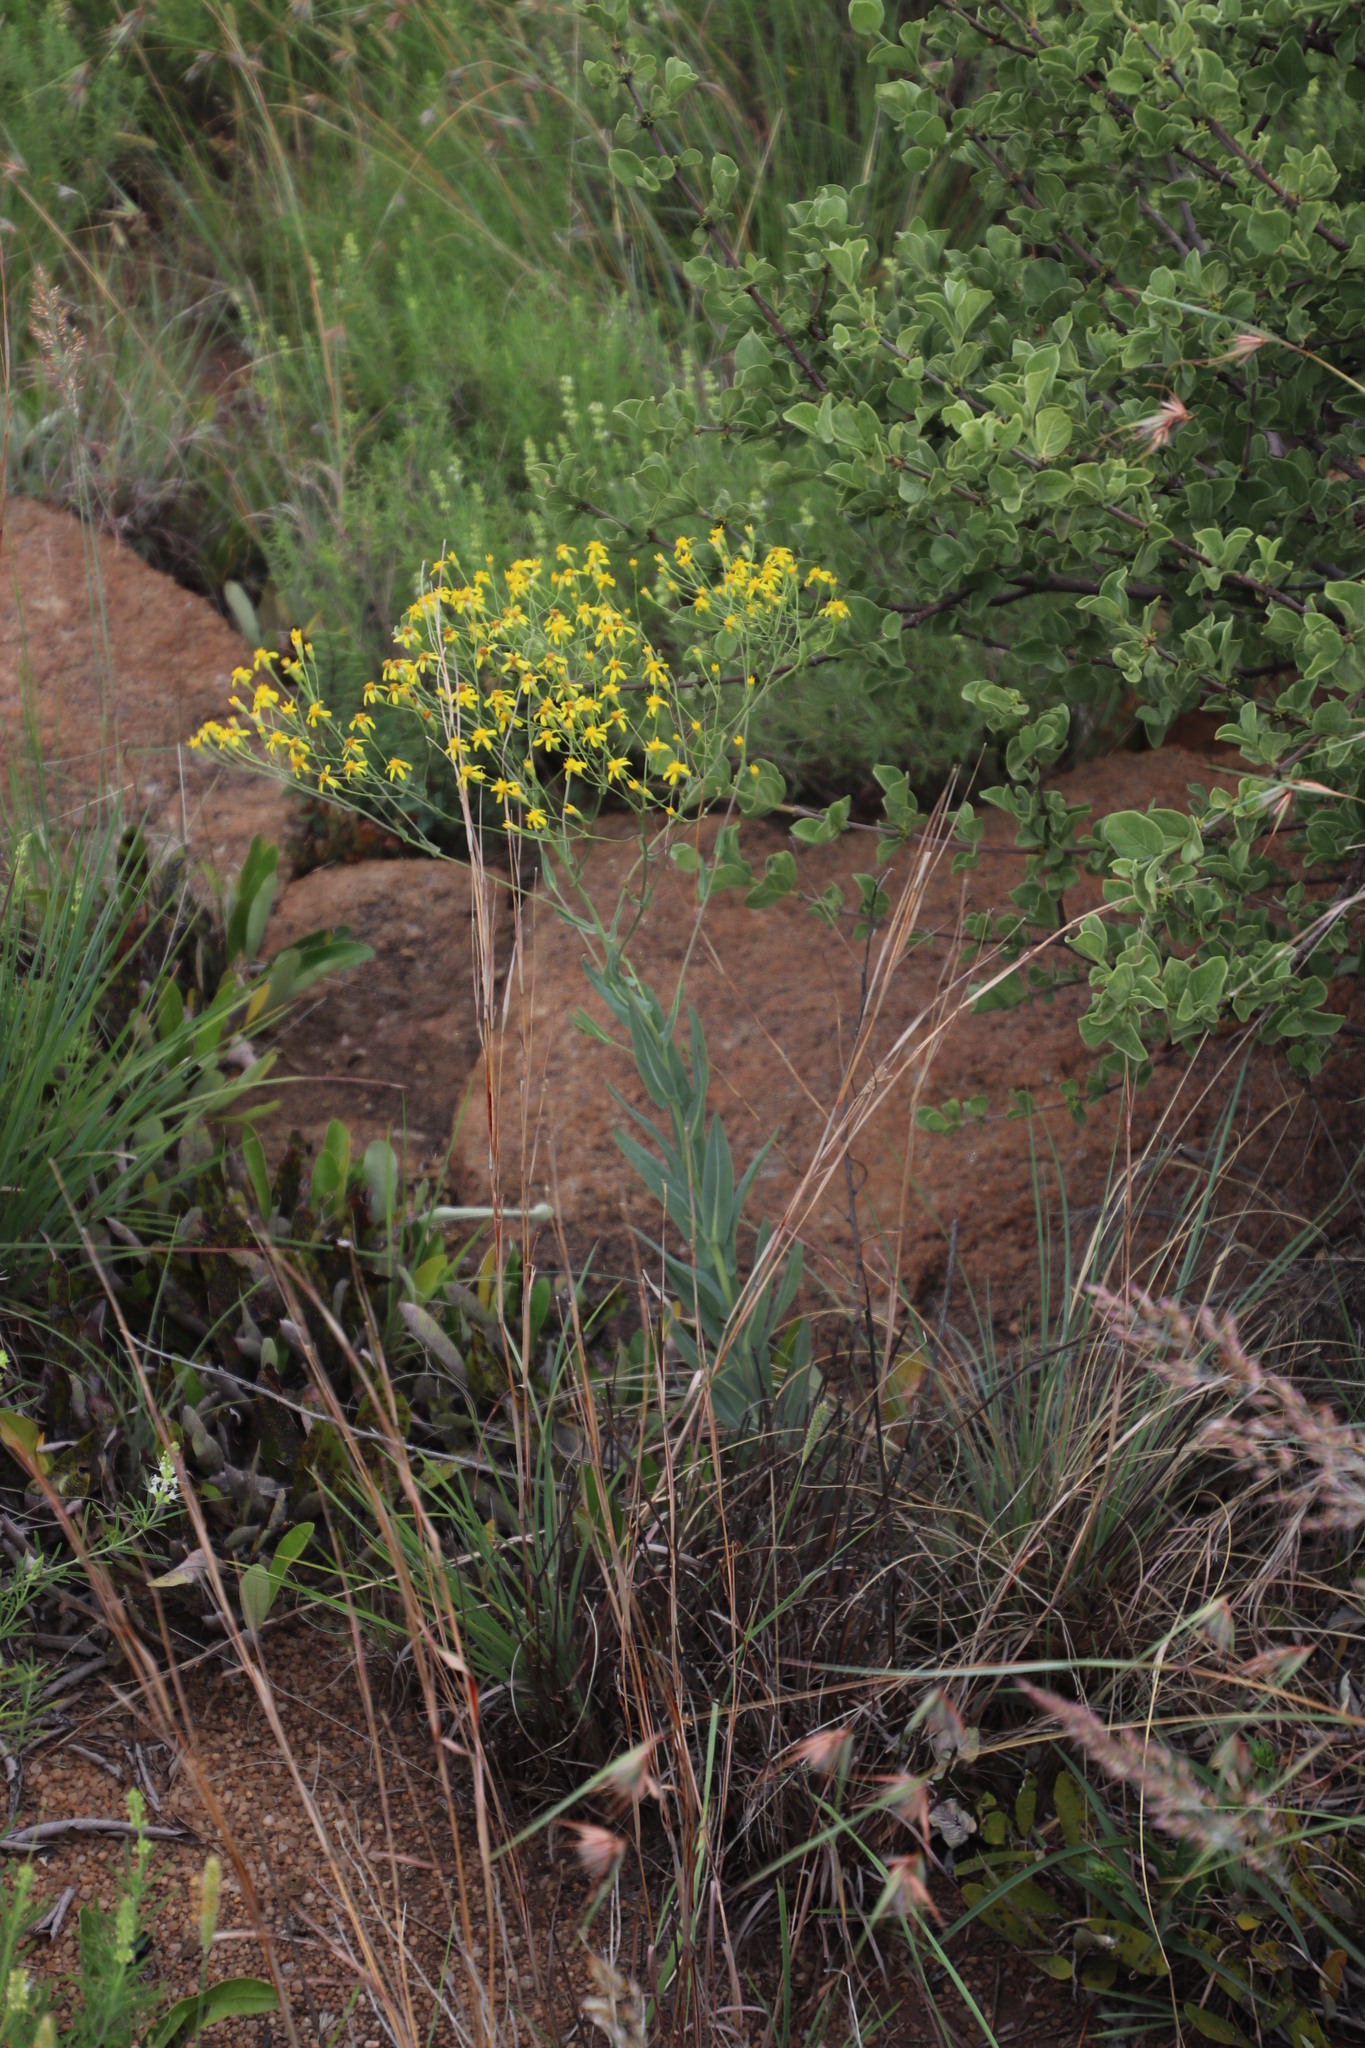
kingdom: Plantae
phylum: Tracheophyta
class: Magnoliopsida
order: Asterales
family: Asteraceae
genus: Senecio
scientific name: Senecio venosus
